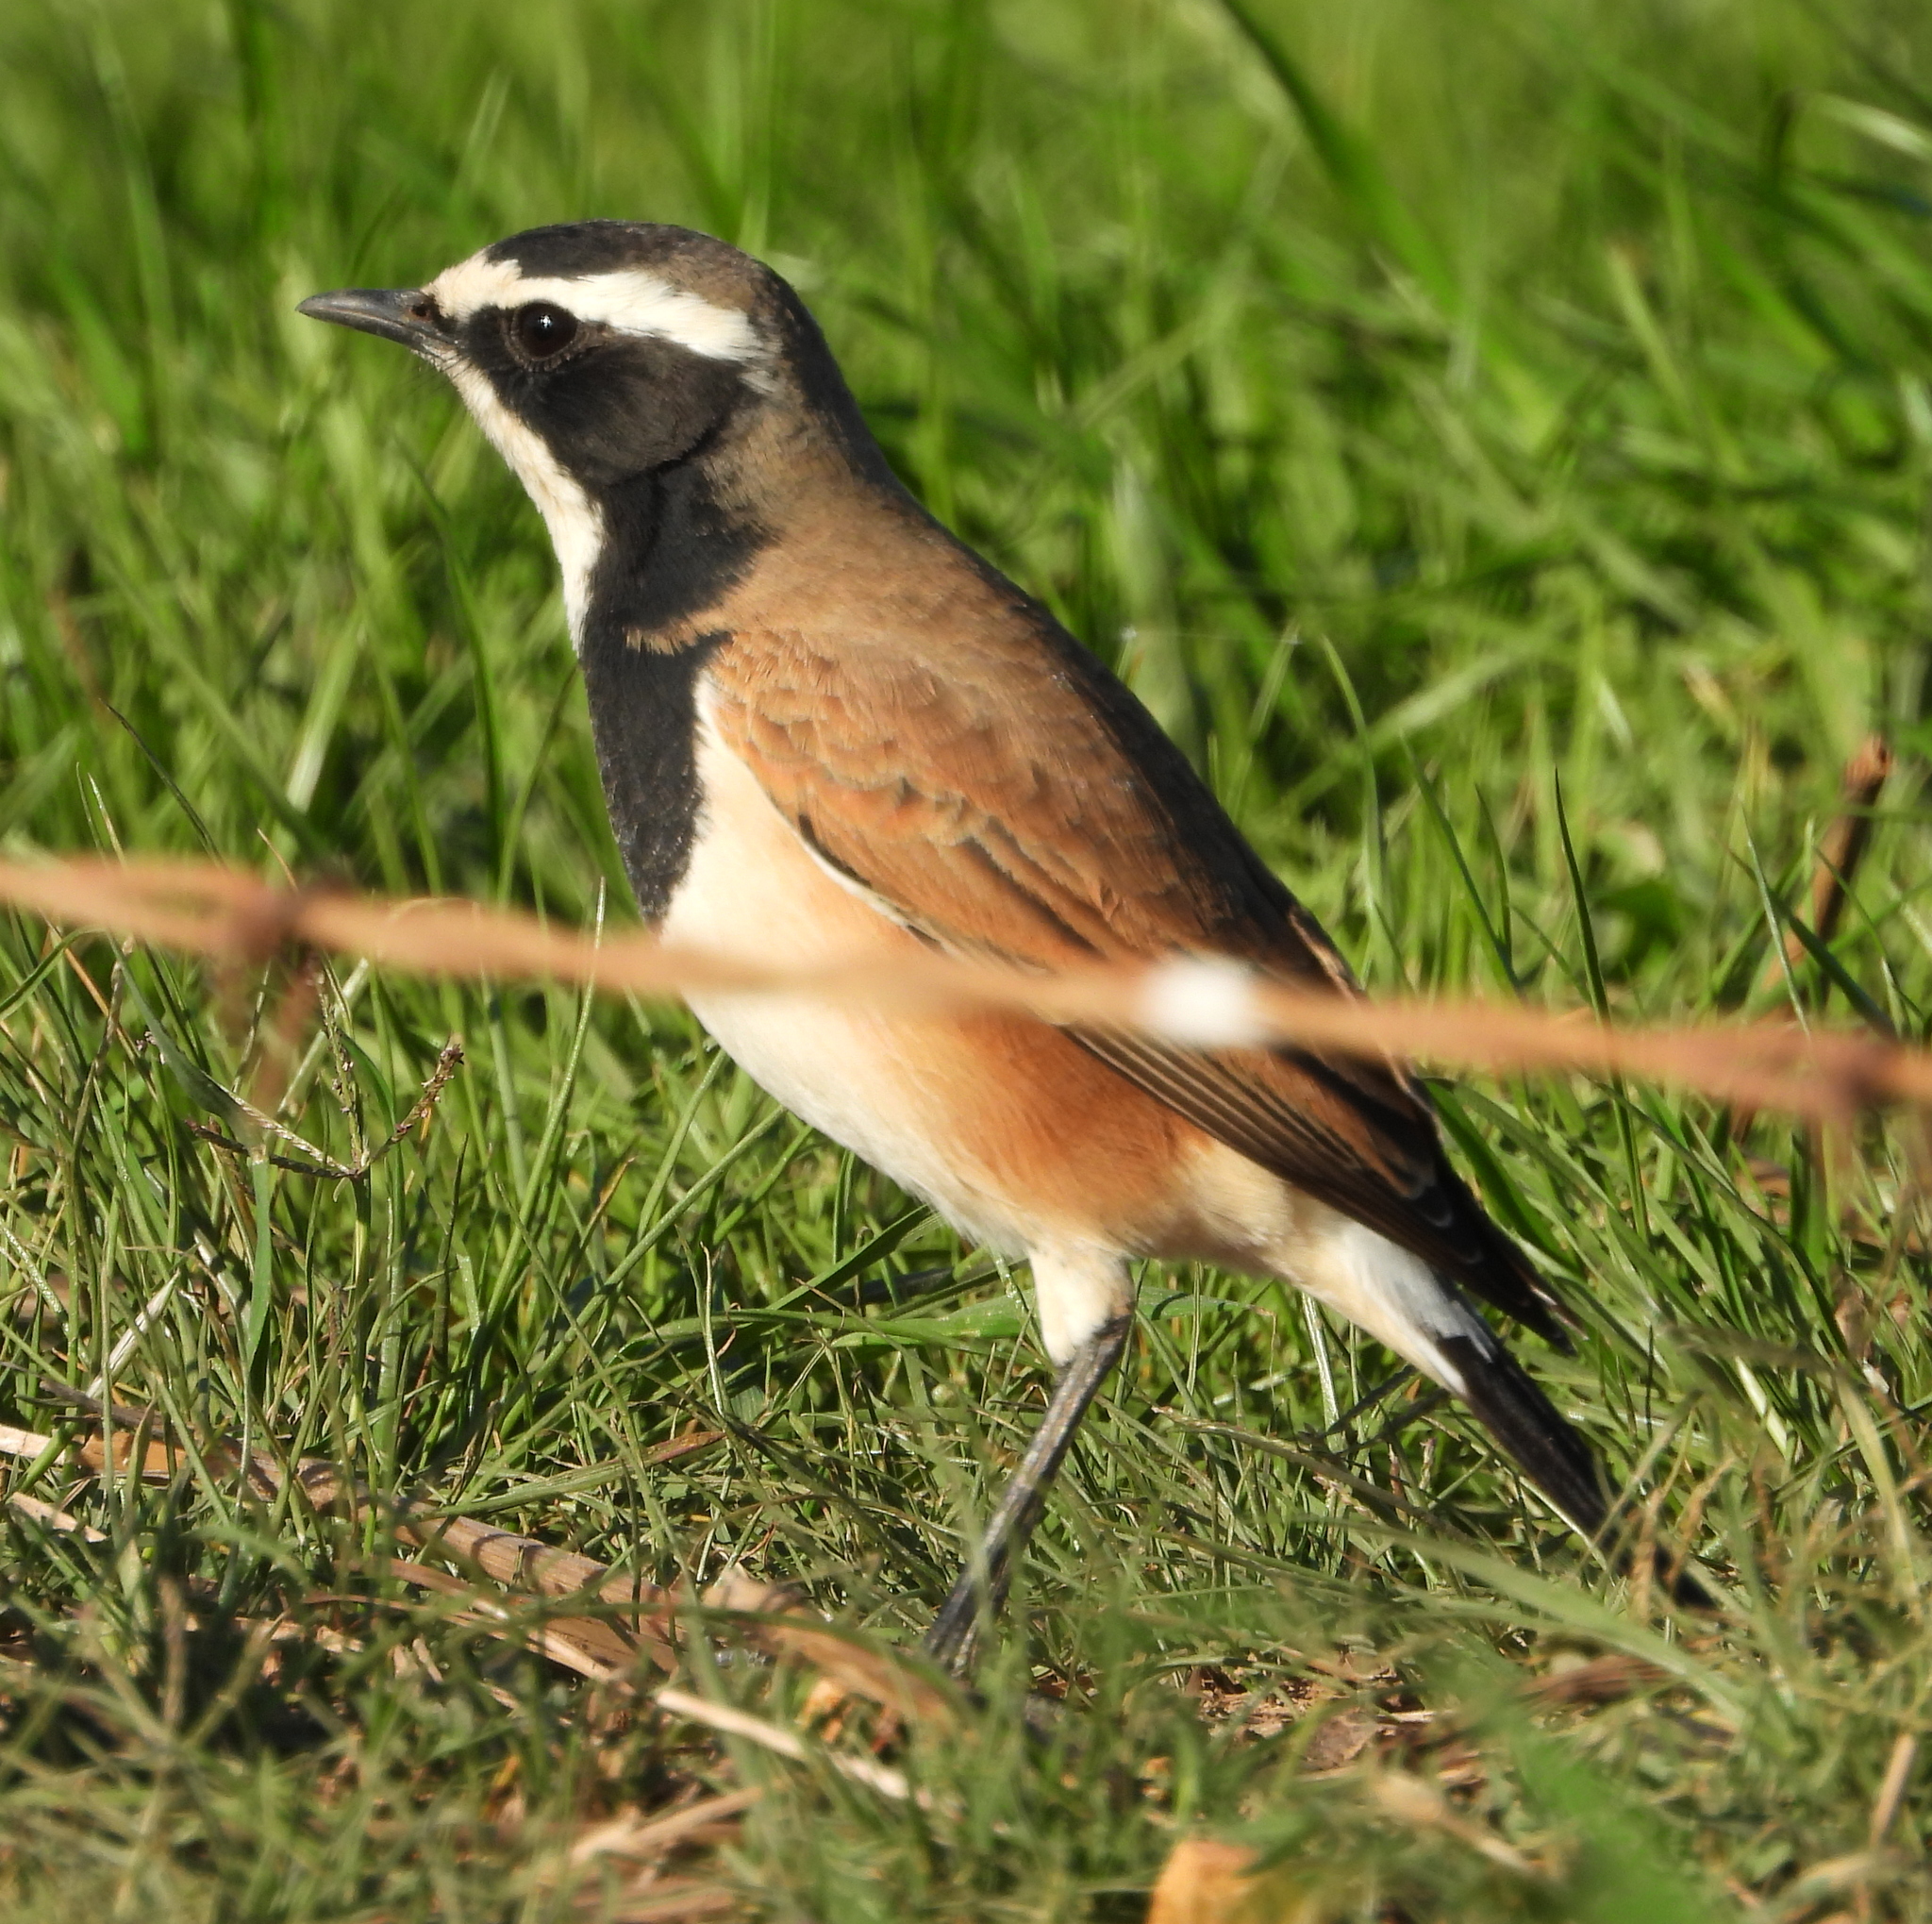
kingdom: Animalia
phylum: Chordata
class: Aves
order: Passeriformes
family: Muscicapidae
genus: Oenanthe
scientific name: Oenanthe pileata
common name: Capped wheatear
